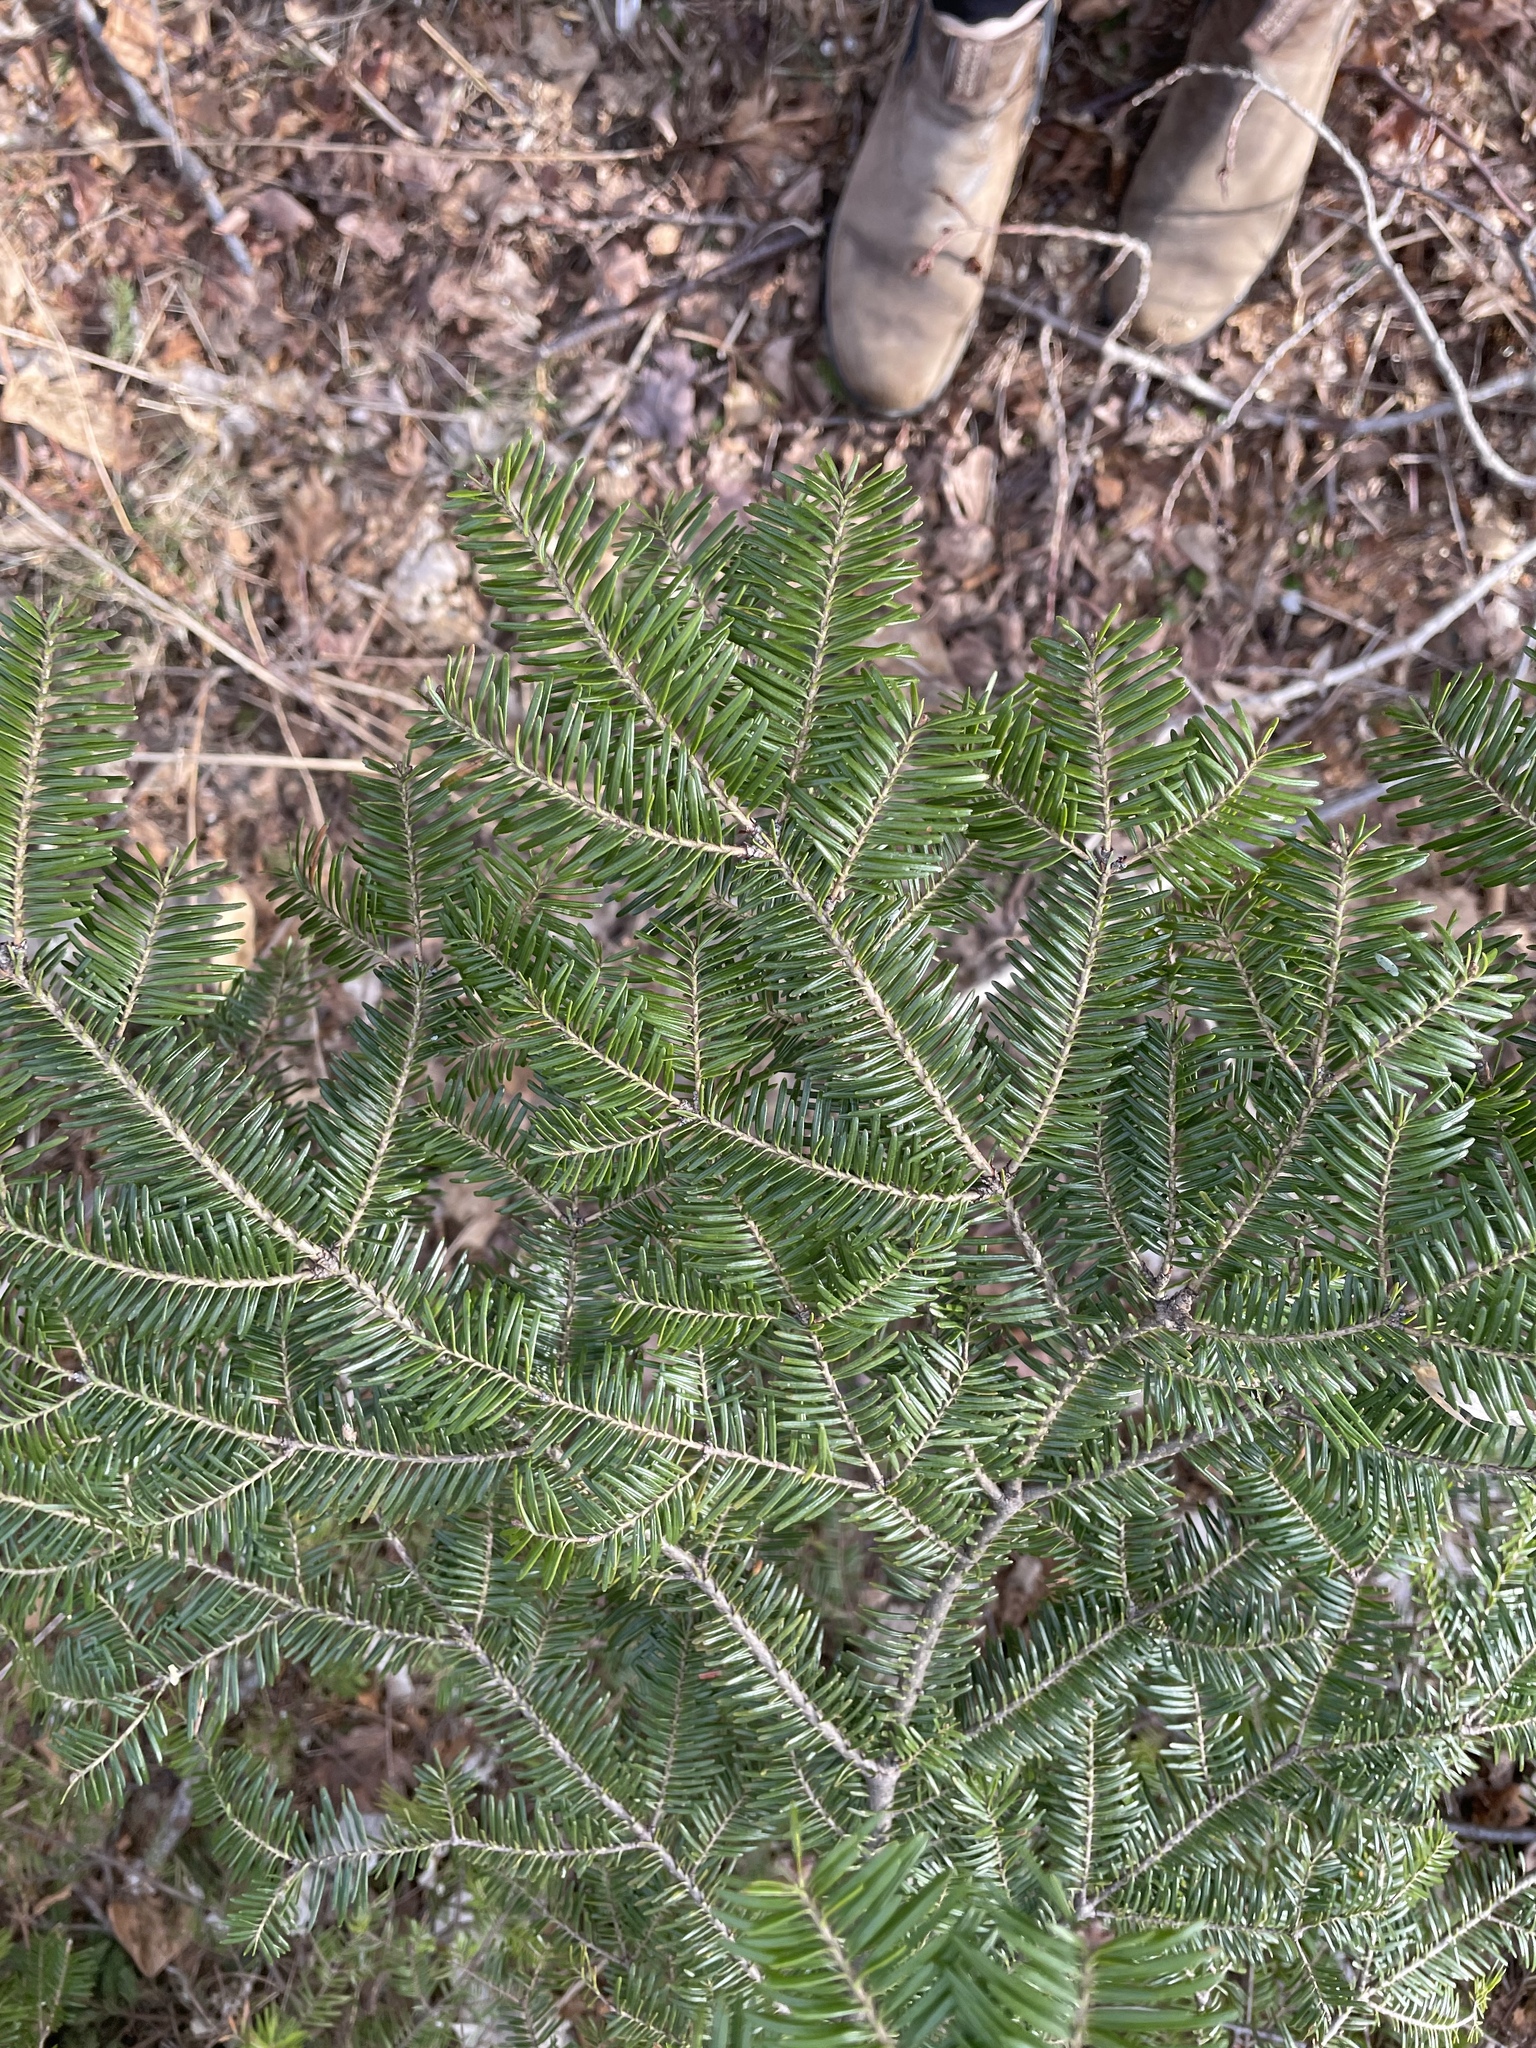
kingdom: Plantae
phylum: Tracheophyta
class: Pinopsida
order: Pinales
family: Pinaceae
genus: Abies
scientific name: Abies balsamea
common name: Balsam fir
